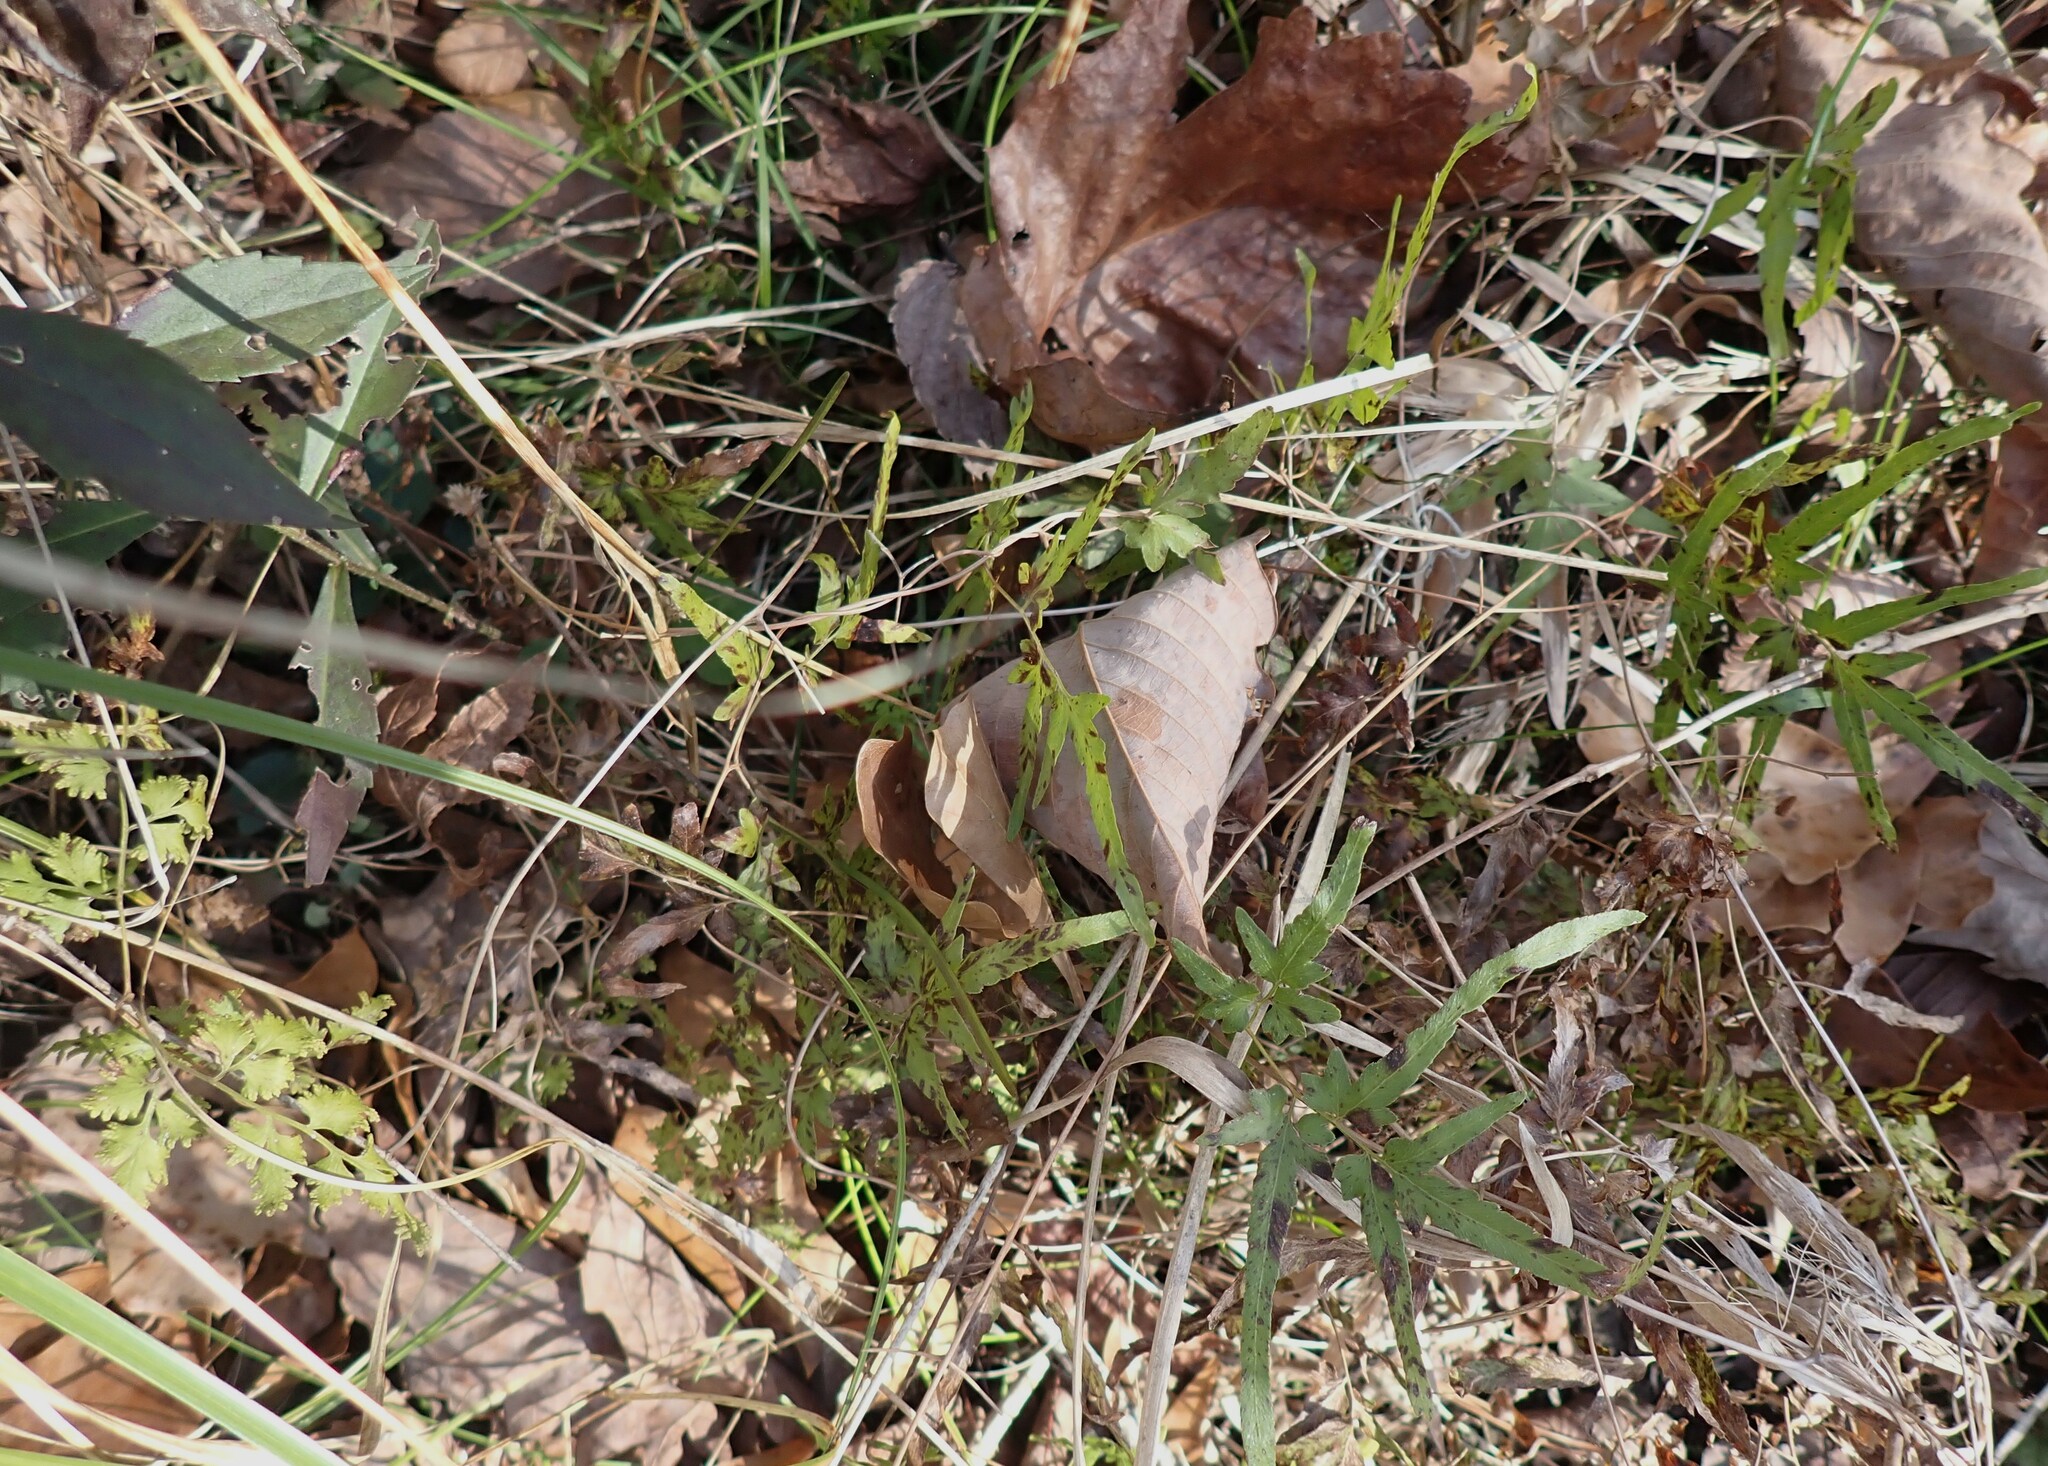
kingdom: Plantae
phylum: Tracheophyta
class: Polypodiopsida
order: Schizaeales
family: Lygodiaceae
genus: Lygodium
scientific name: Lygodium japonicum
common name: Japanese climbing fern
